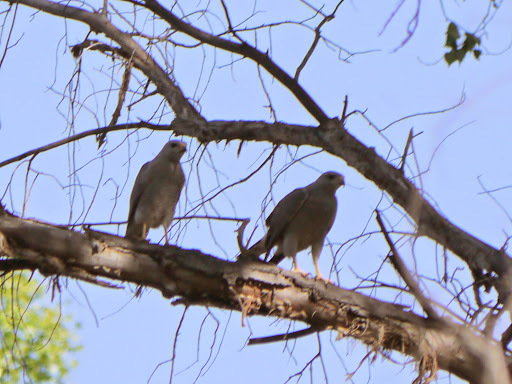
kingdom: Animalia
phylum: Chordata
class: Aves
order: Accipitriformes
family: Accipitridae
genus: Buteo
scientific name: Buteo nitidus
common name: Grey-lined hawk
